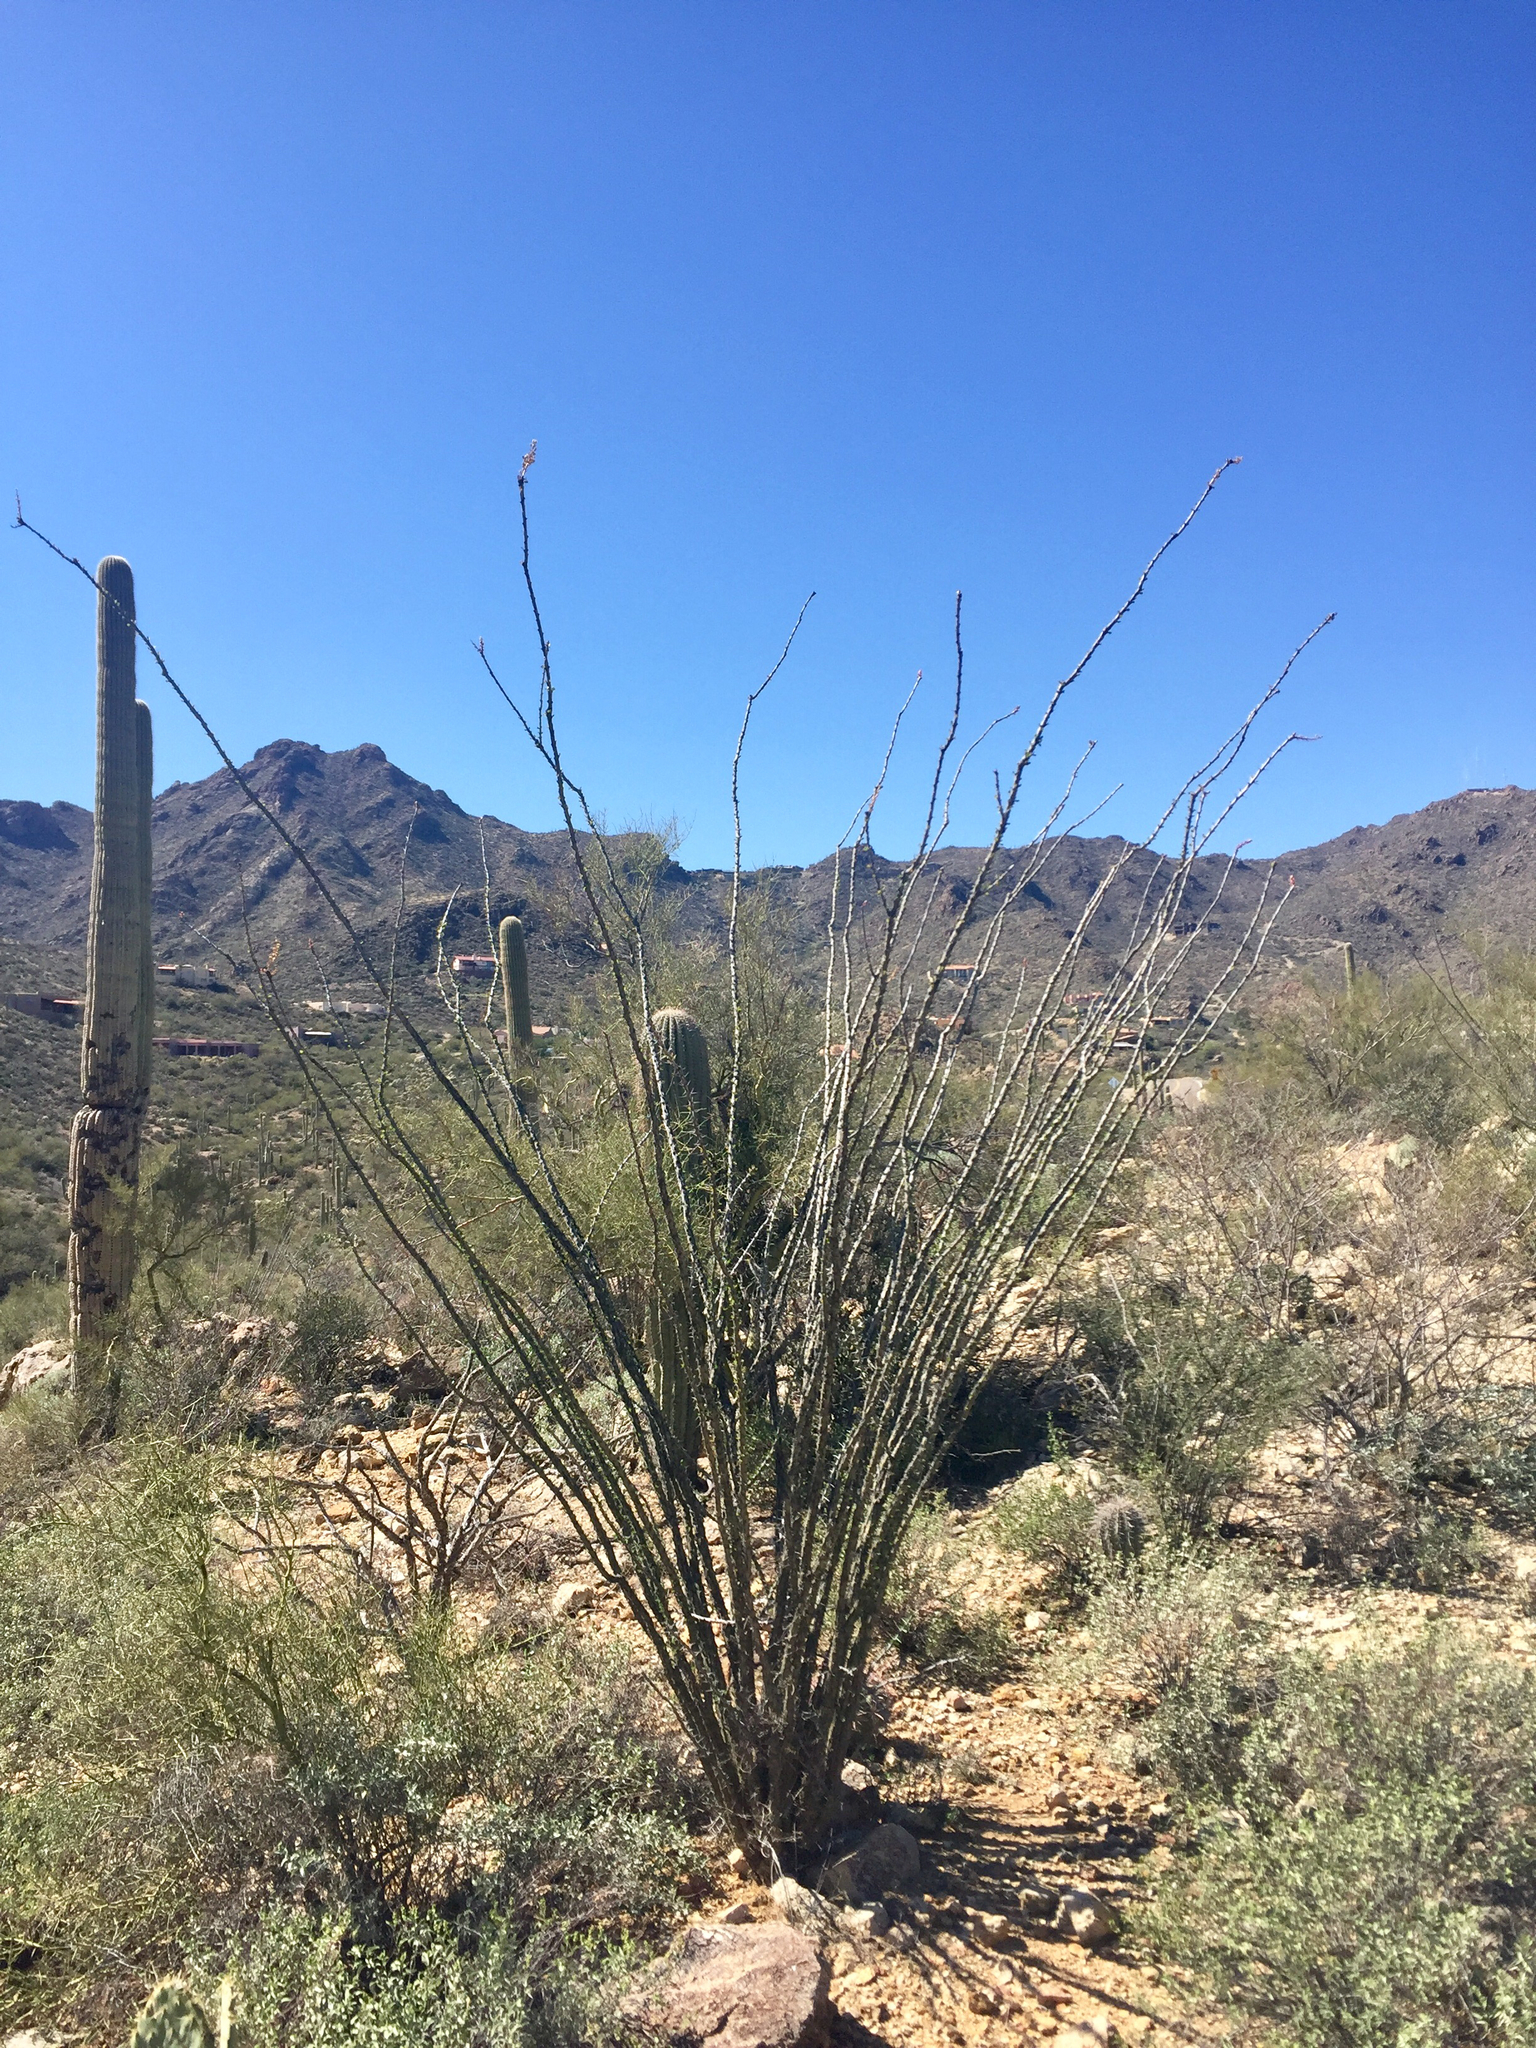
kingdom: Plantae
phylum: Tracheophyta
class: Magnoliopsida
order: Ericales
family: Fouquieriaceae
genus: Fouquieria
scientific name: Fouquieria splendens
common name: Vine-cactus
